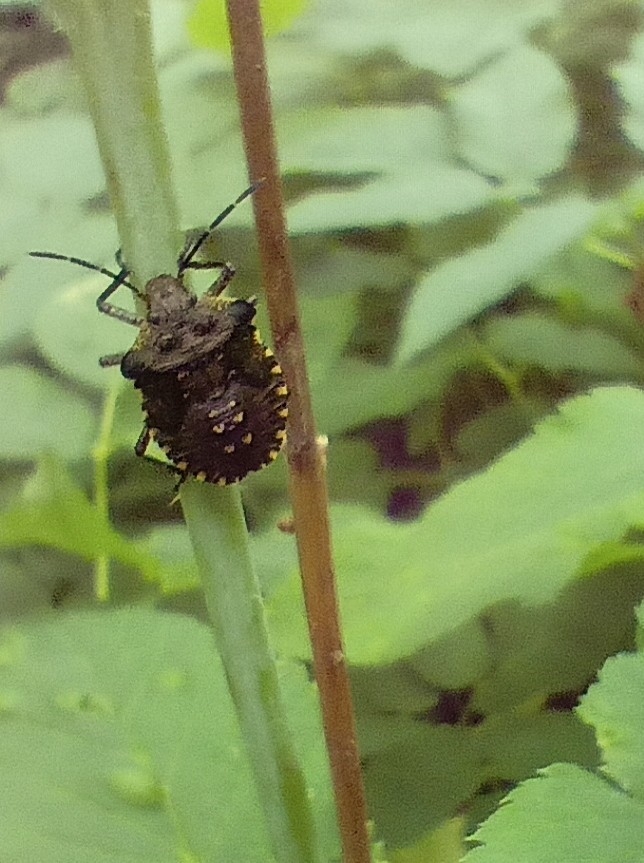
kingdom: Animalia
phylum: Arthropoda
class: Insecta
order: Hemiptera
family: Pentatomidae
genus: Pentatoma
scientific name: Pentatoma rufipes
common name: Forest bug
